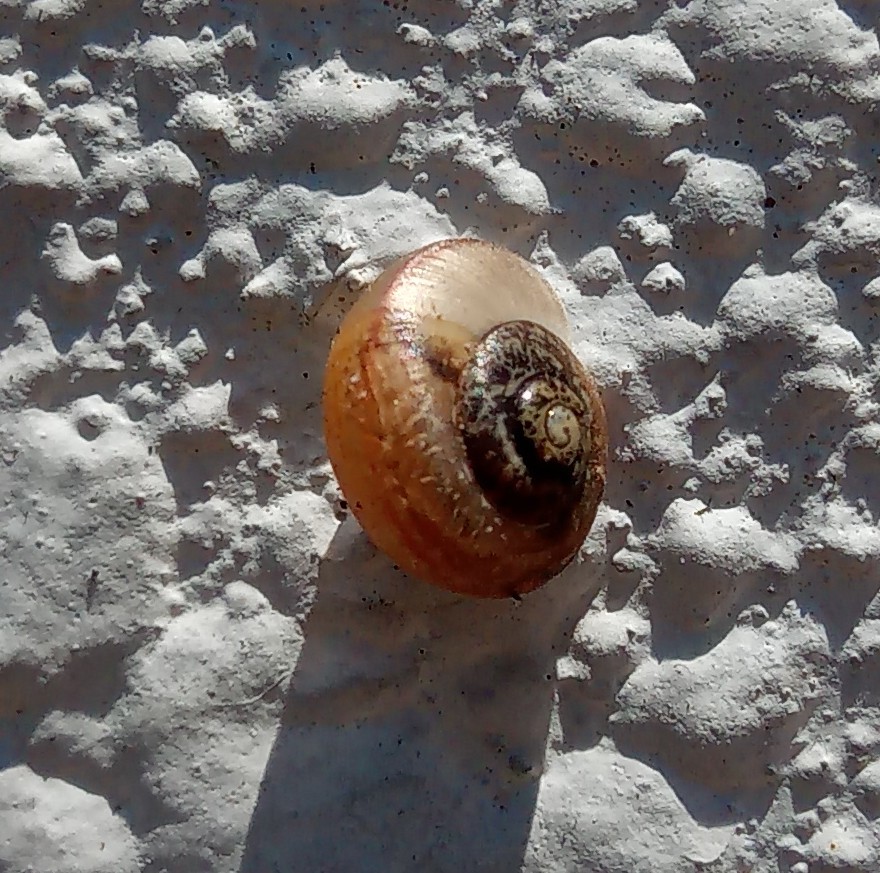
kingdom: Animalia
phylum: Mollusca
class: Gastropoda
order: Stylommatophora
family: Camaenidae
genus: Bradybaena
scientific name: Bradybaena similaris
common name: Asian trampsnail
